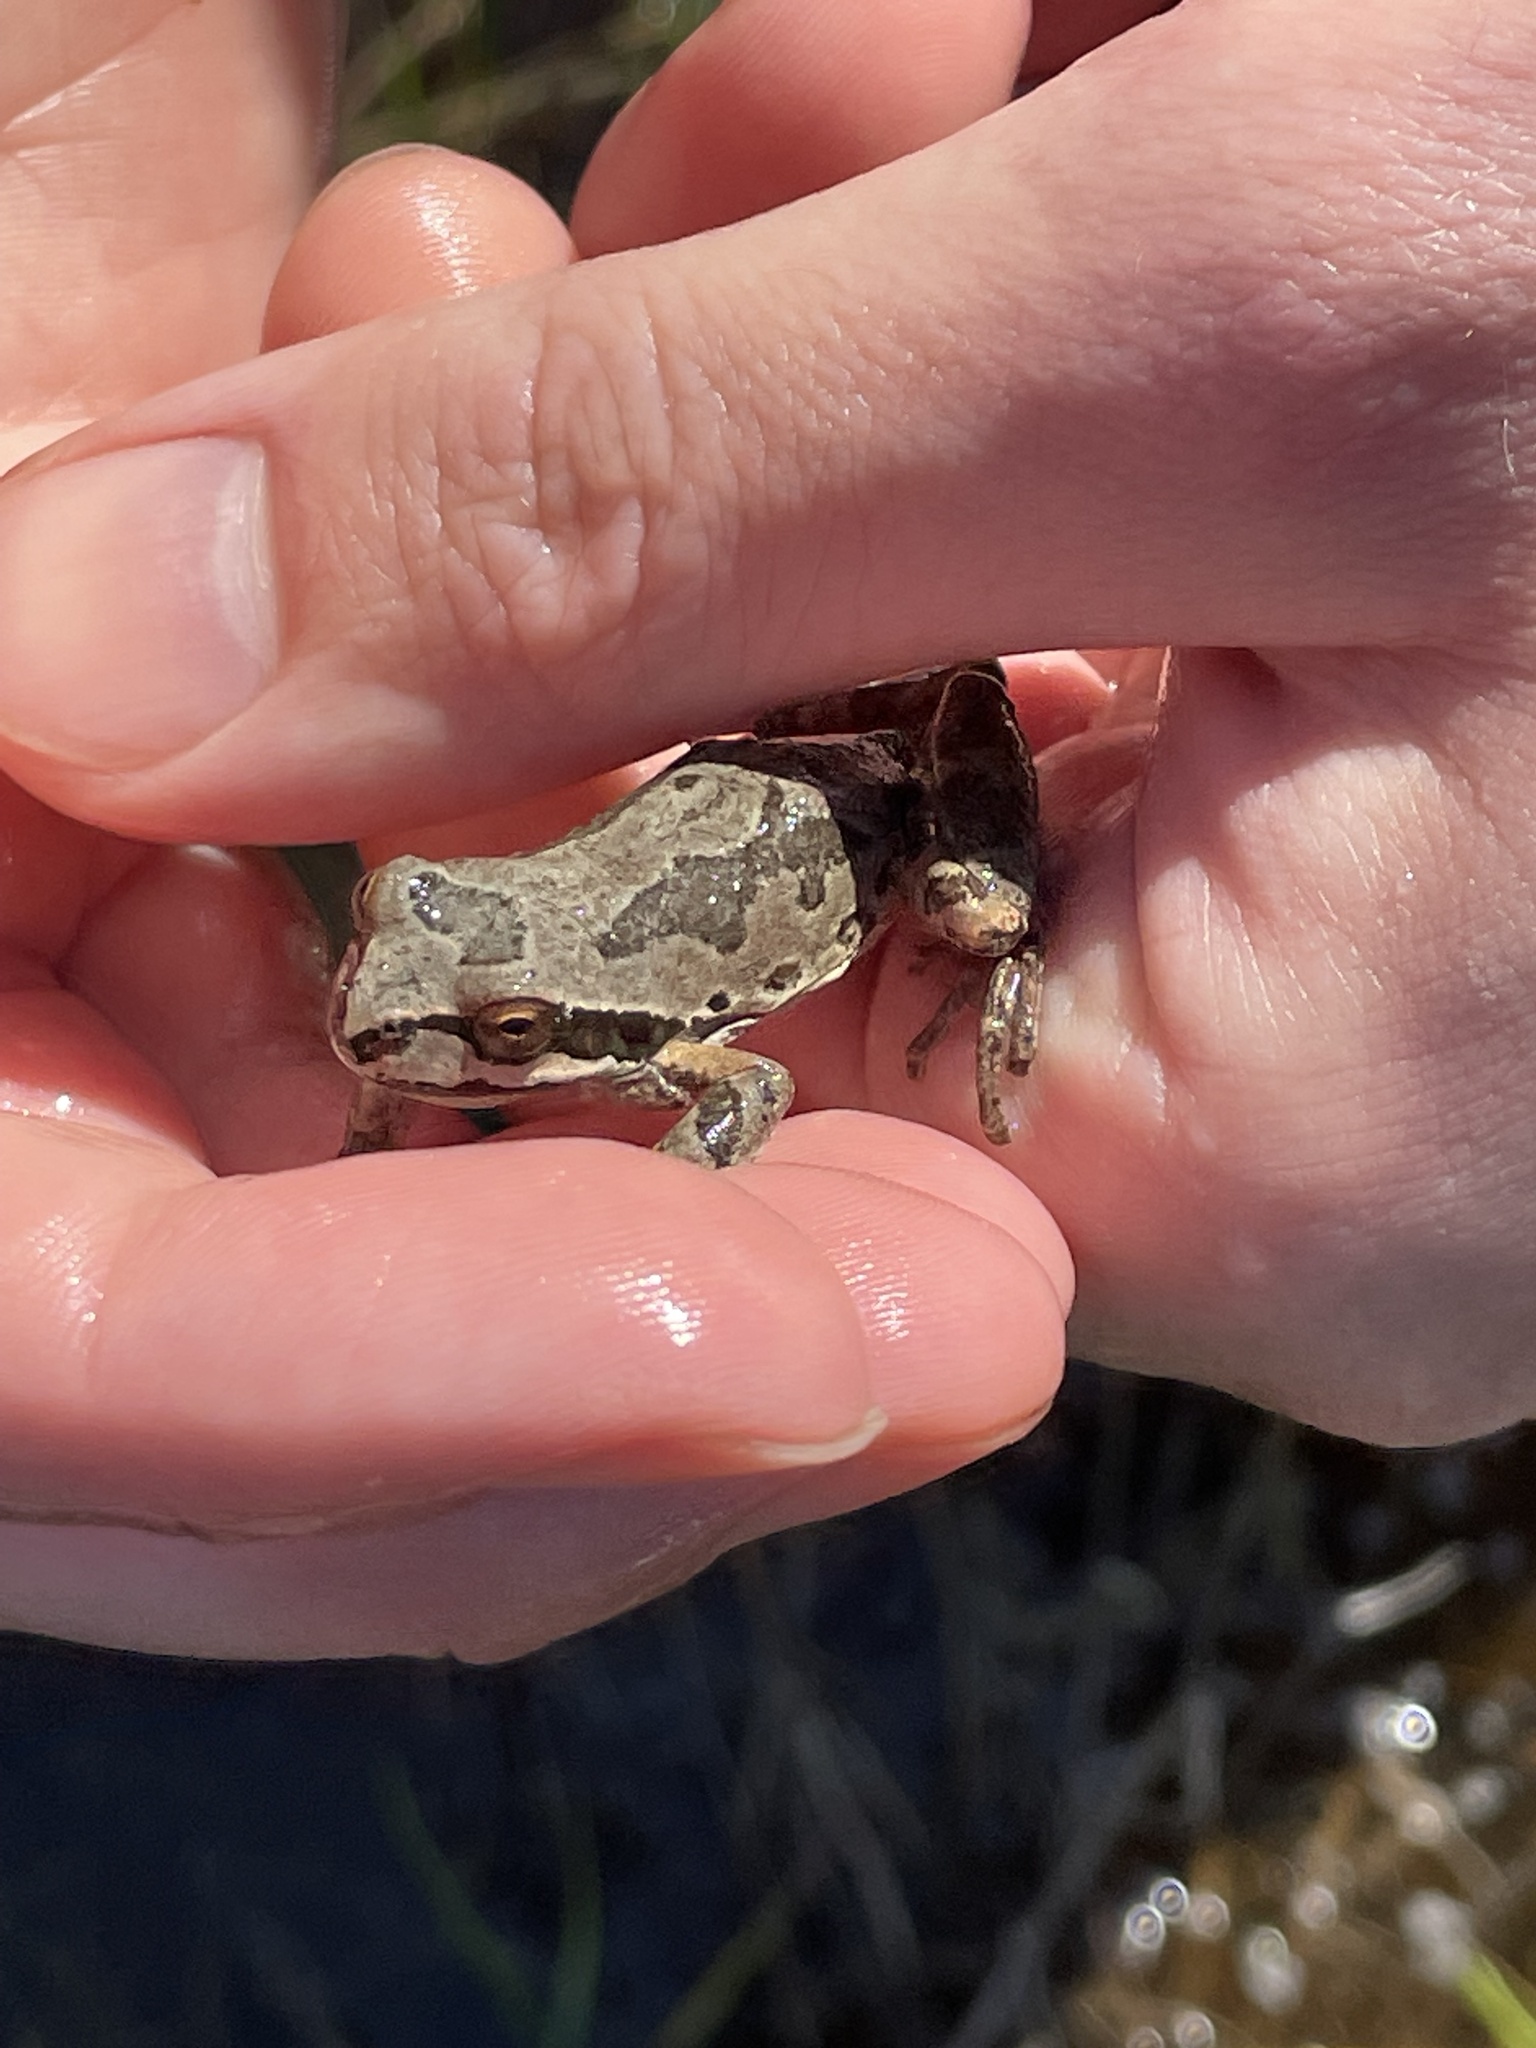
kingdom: Animalia
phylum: Chordata
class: Amphibia
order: Anura
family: Hylidae
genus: Pseudacris
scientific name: Pseudacris regilla
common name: Pacific chorus frog
